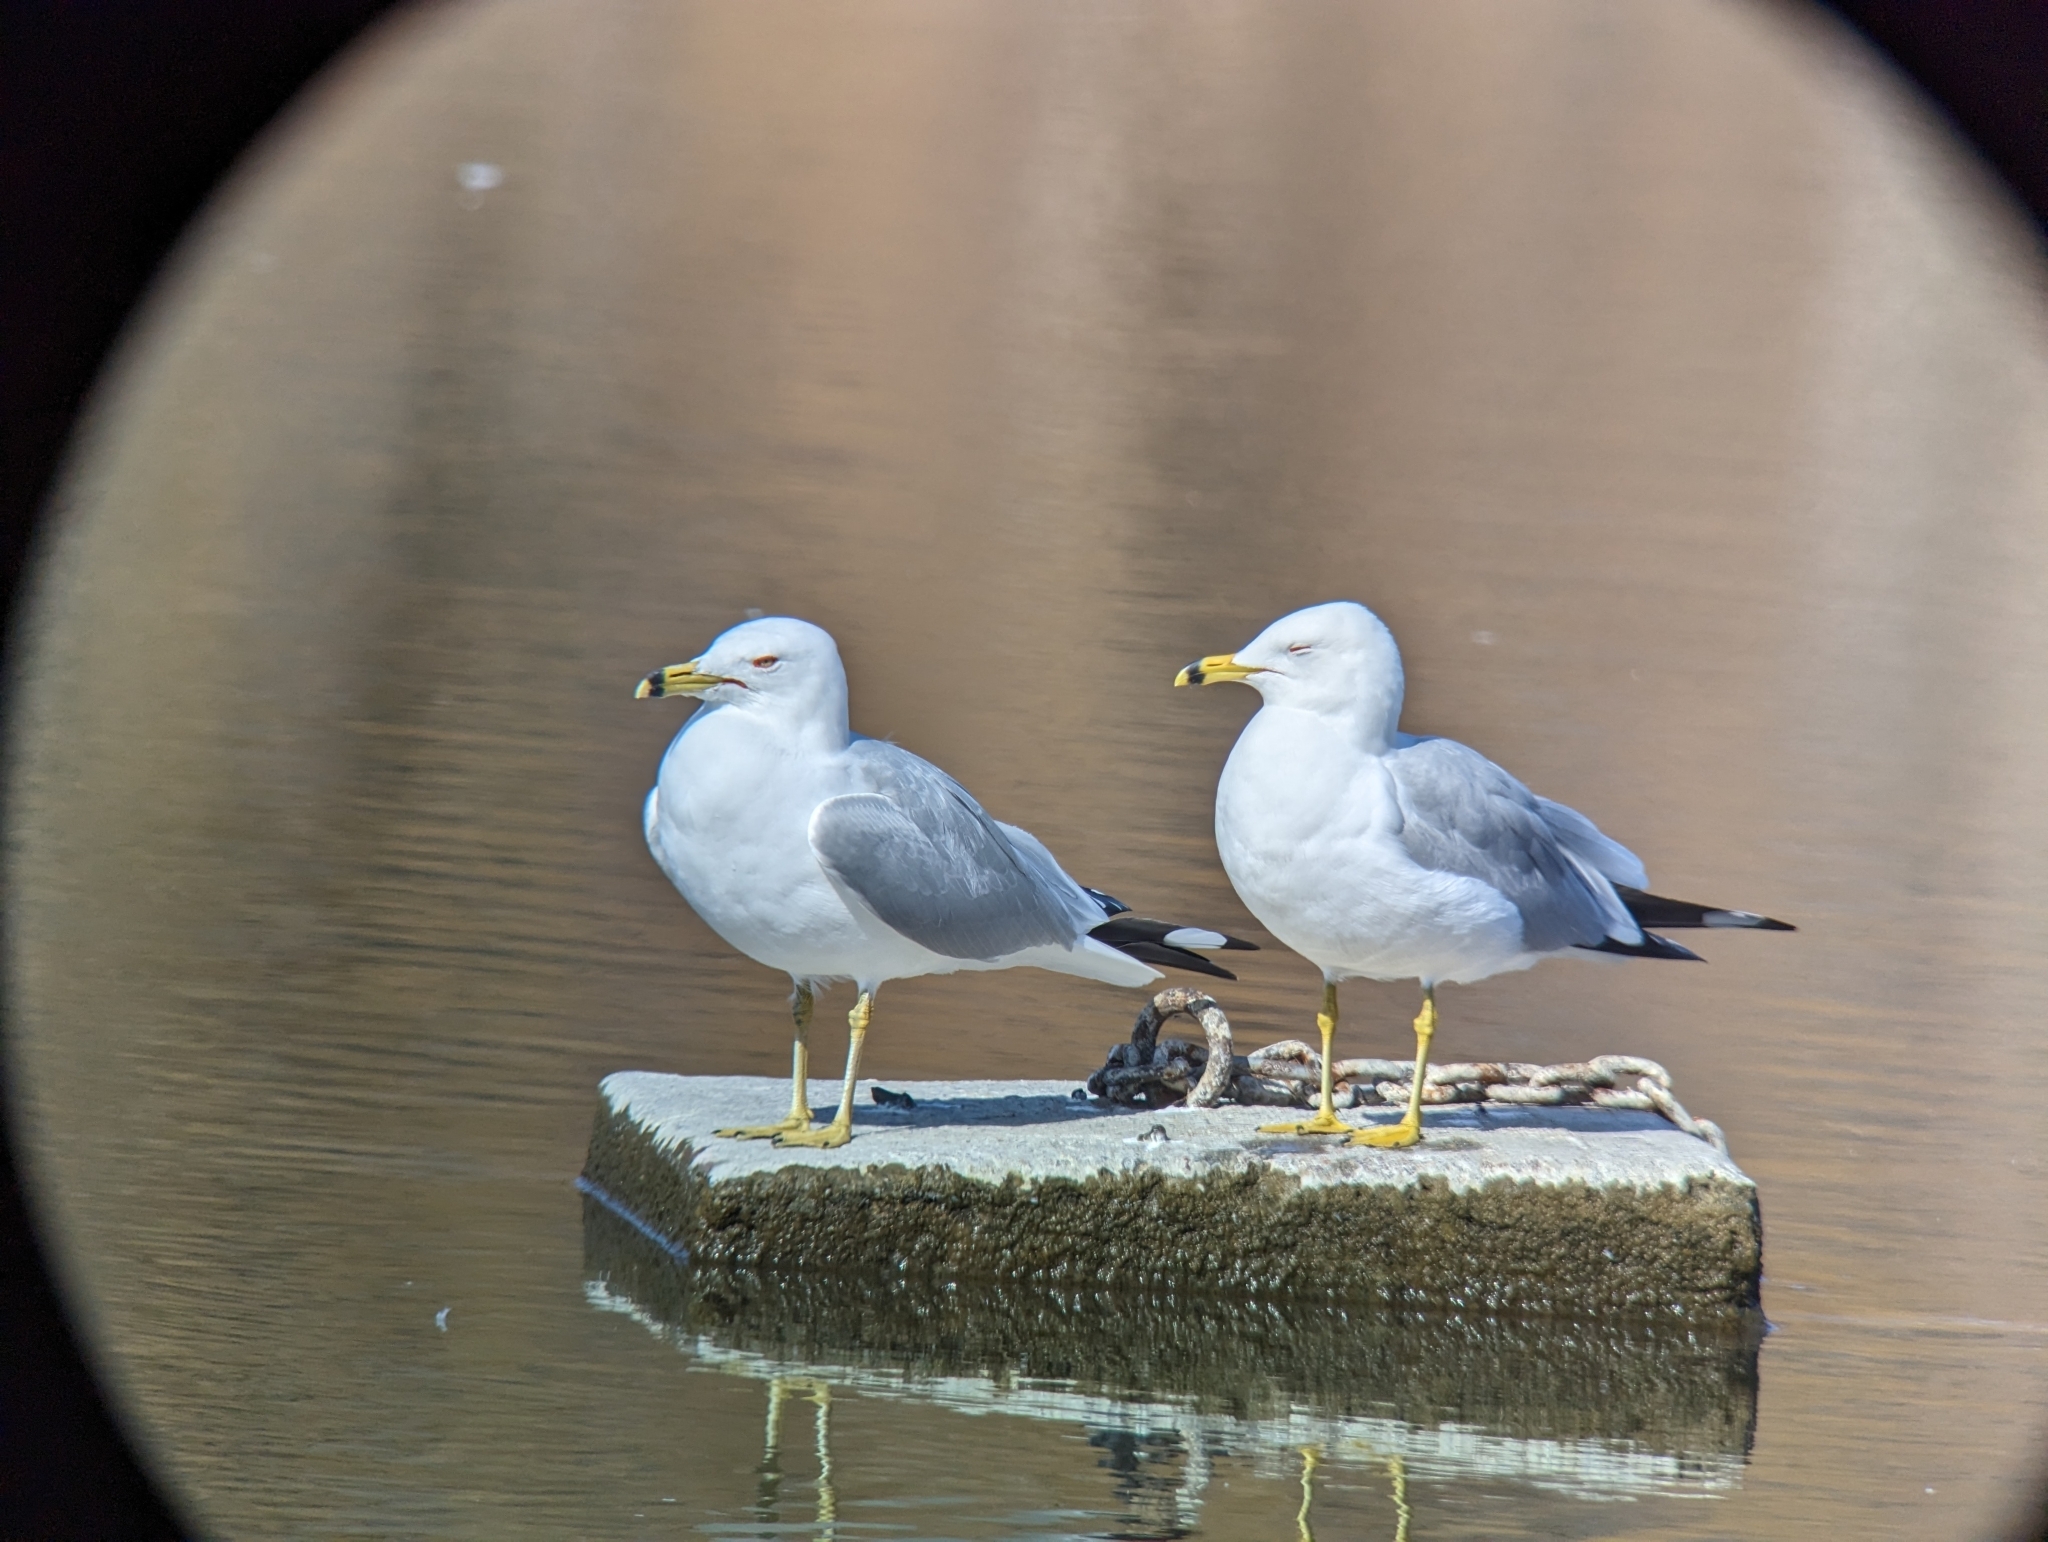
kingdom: Animalia
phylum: Chordata
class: Aves
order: Charadriiformes
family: Laridae
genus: Larus
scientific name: Larus delawarensis
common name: Ring-billed gull
